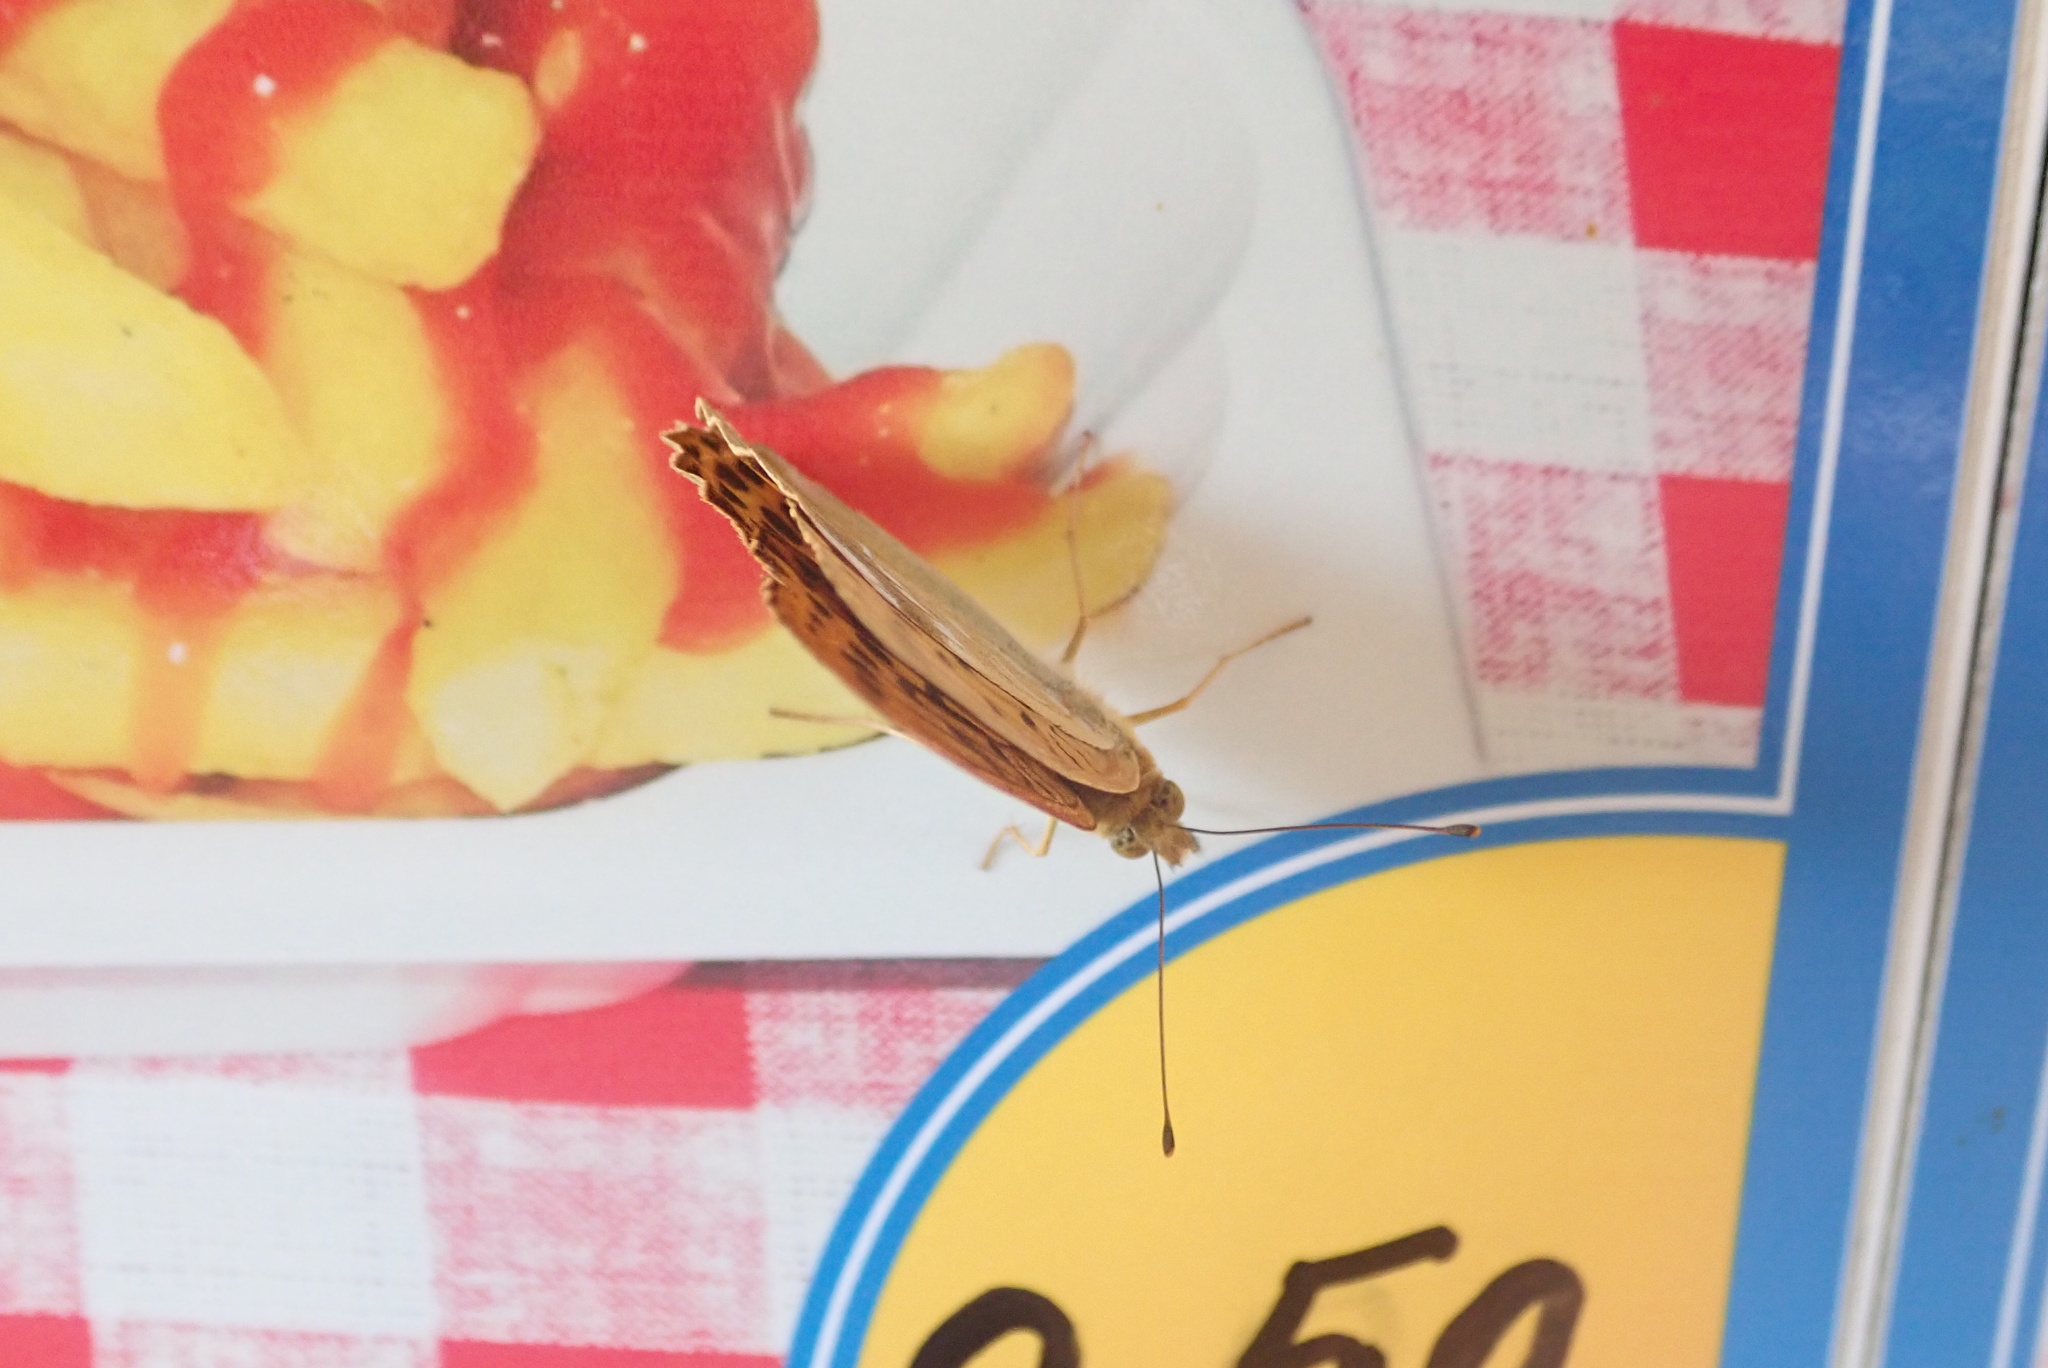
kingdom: Animalia
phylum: Arthropoda
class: Insecta
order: Lepidoptera
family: Nymphalidae
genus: Argynnis
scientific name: Argynnis paphia
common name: Silver-washed fritillary
